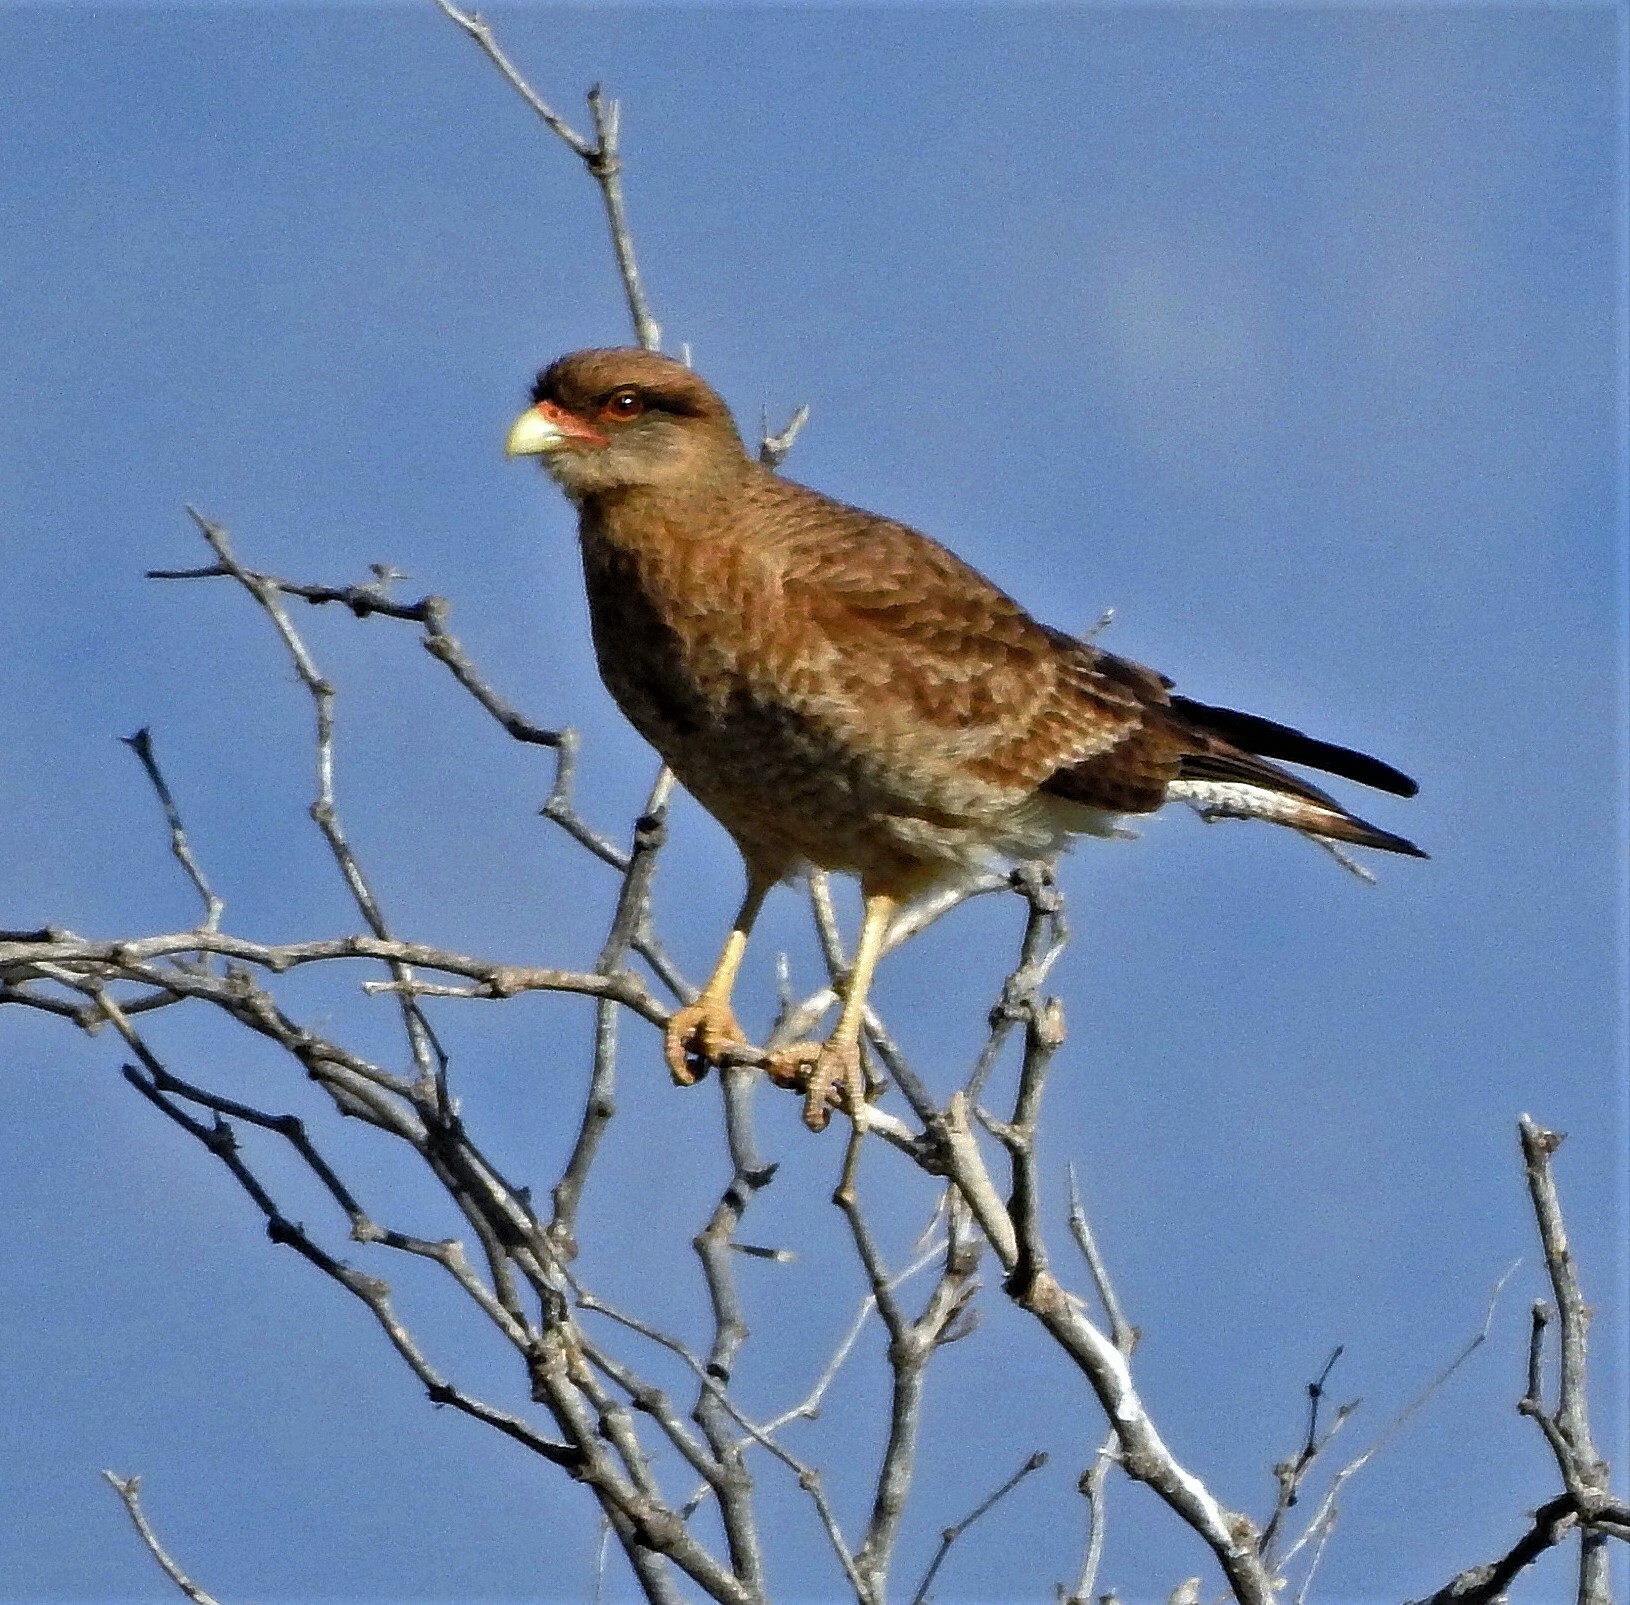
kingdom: Animalia
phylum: Chordata
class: Aves
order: Falconiformes
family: Falconidae
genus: Daptrius
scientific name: Daptrius
